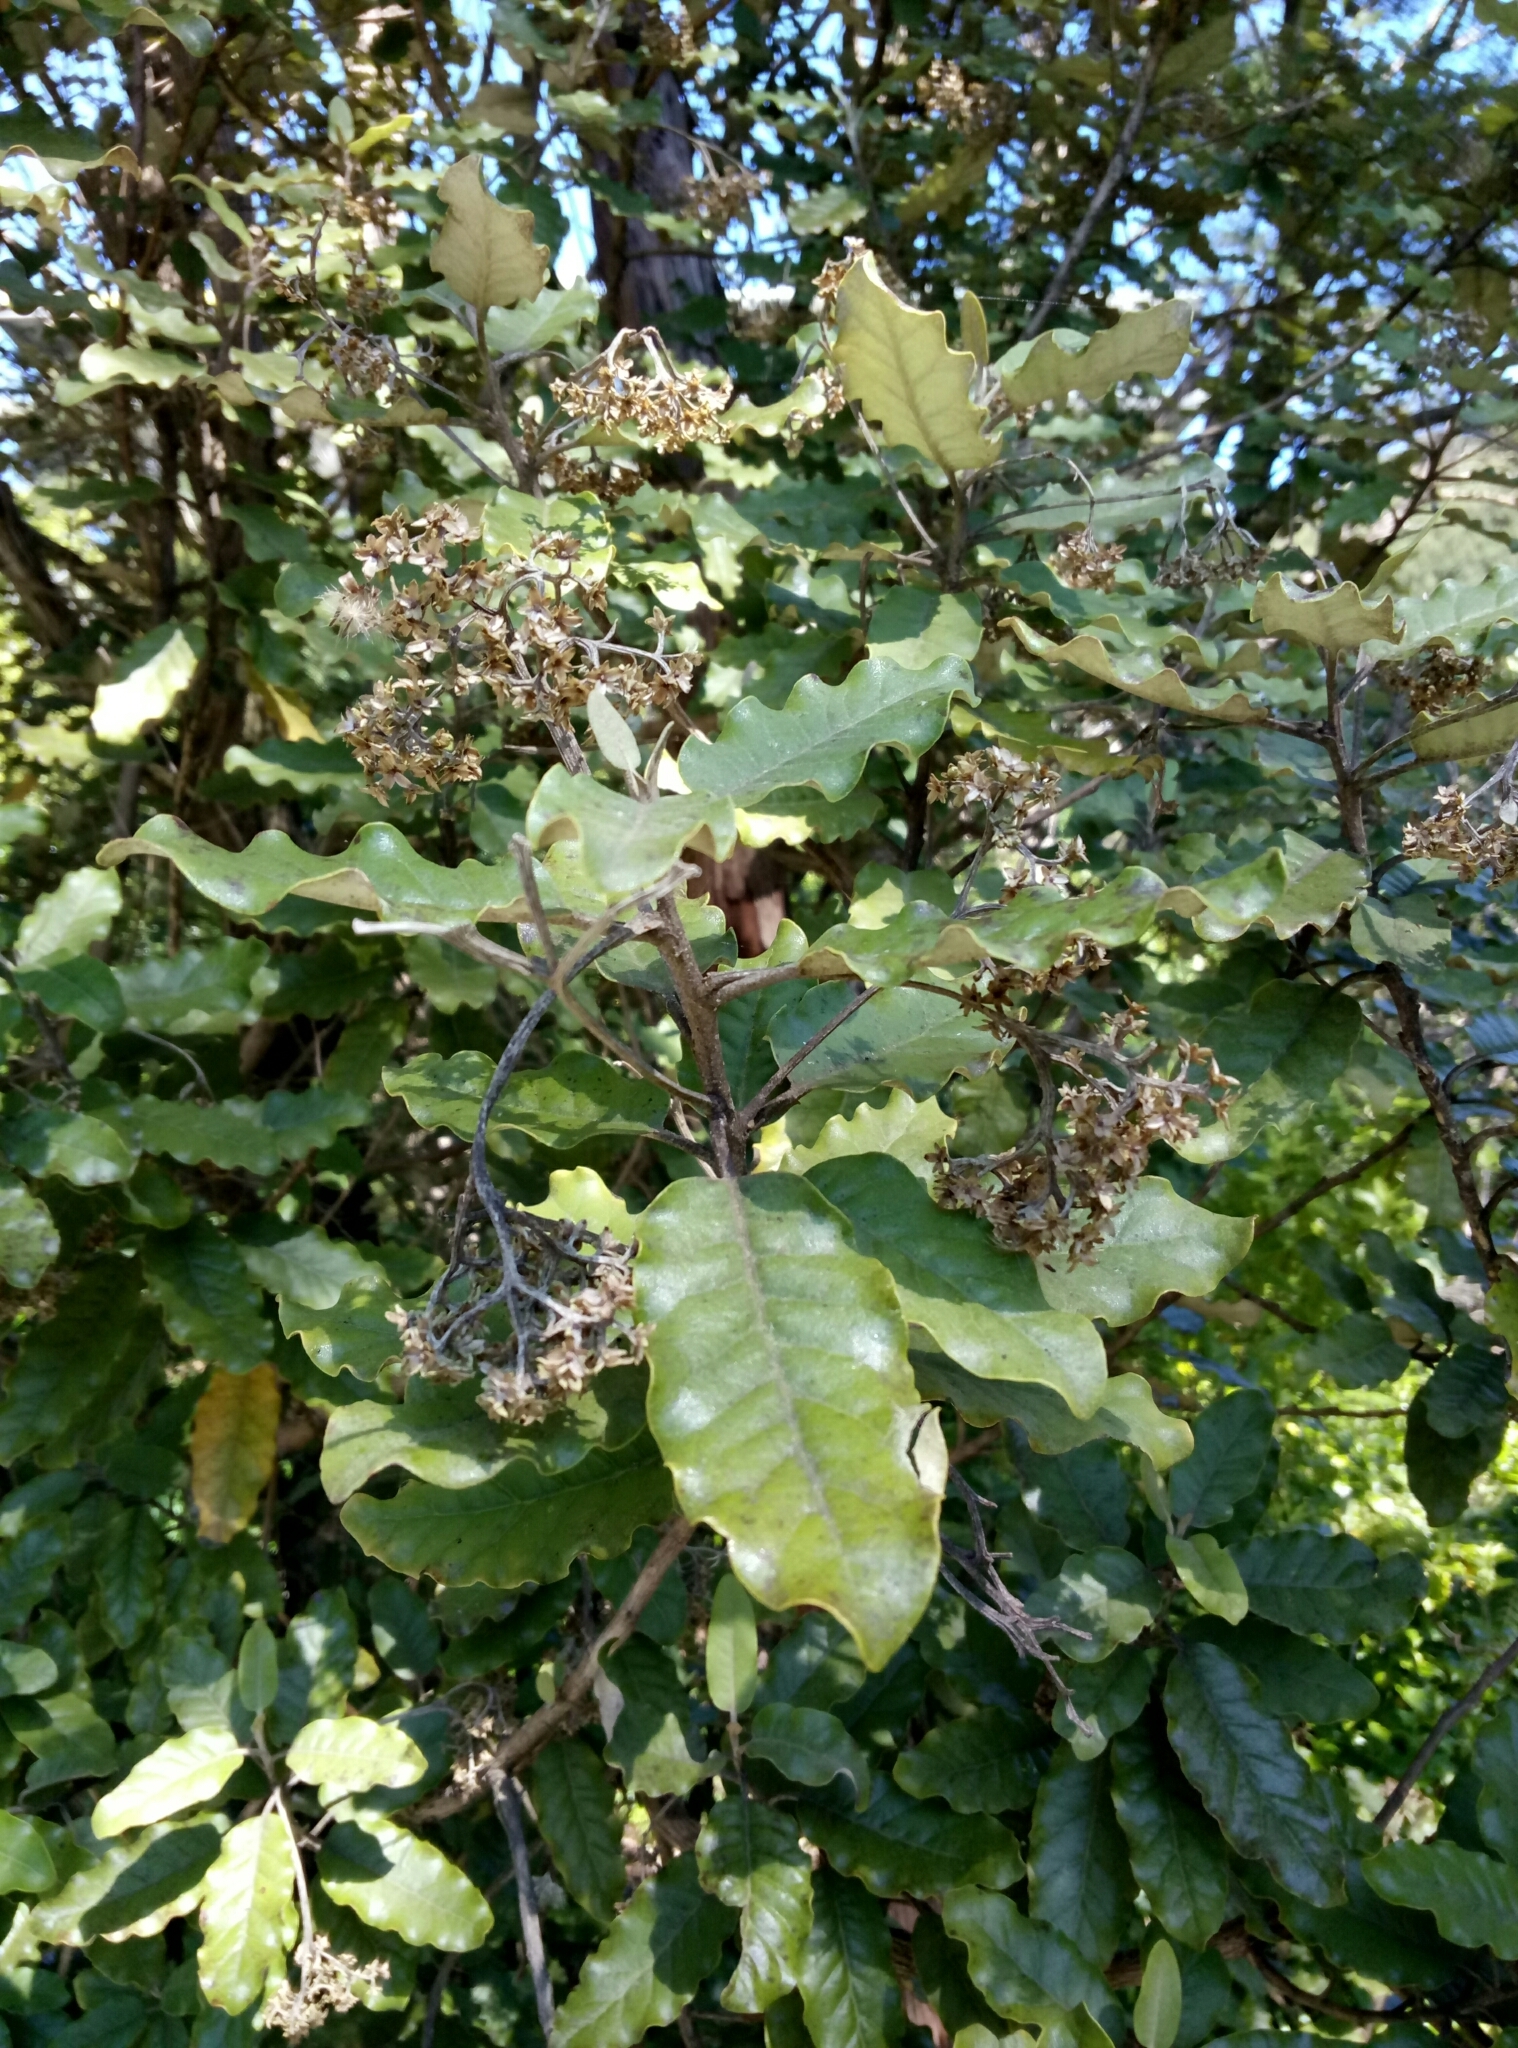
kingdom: Plantae
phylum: Tracheophyta
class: Magnoliopsida
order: Asterales
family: Asteraceae
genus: Olearia
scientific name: Olearia paniculata
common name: Akiraho
